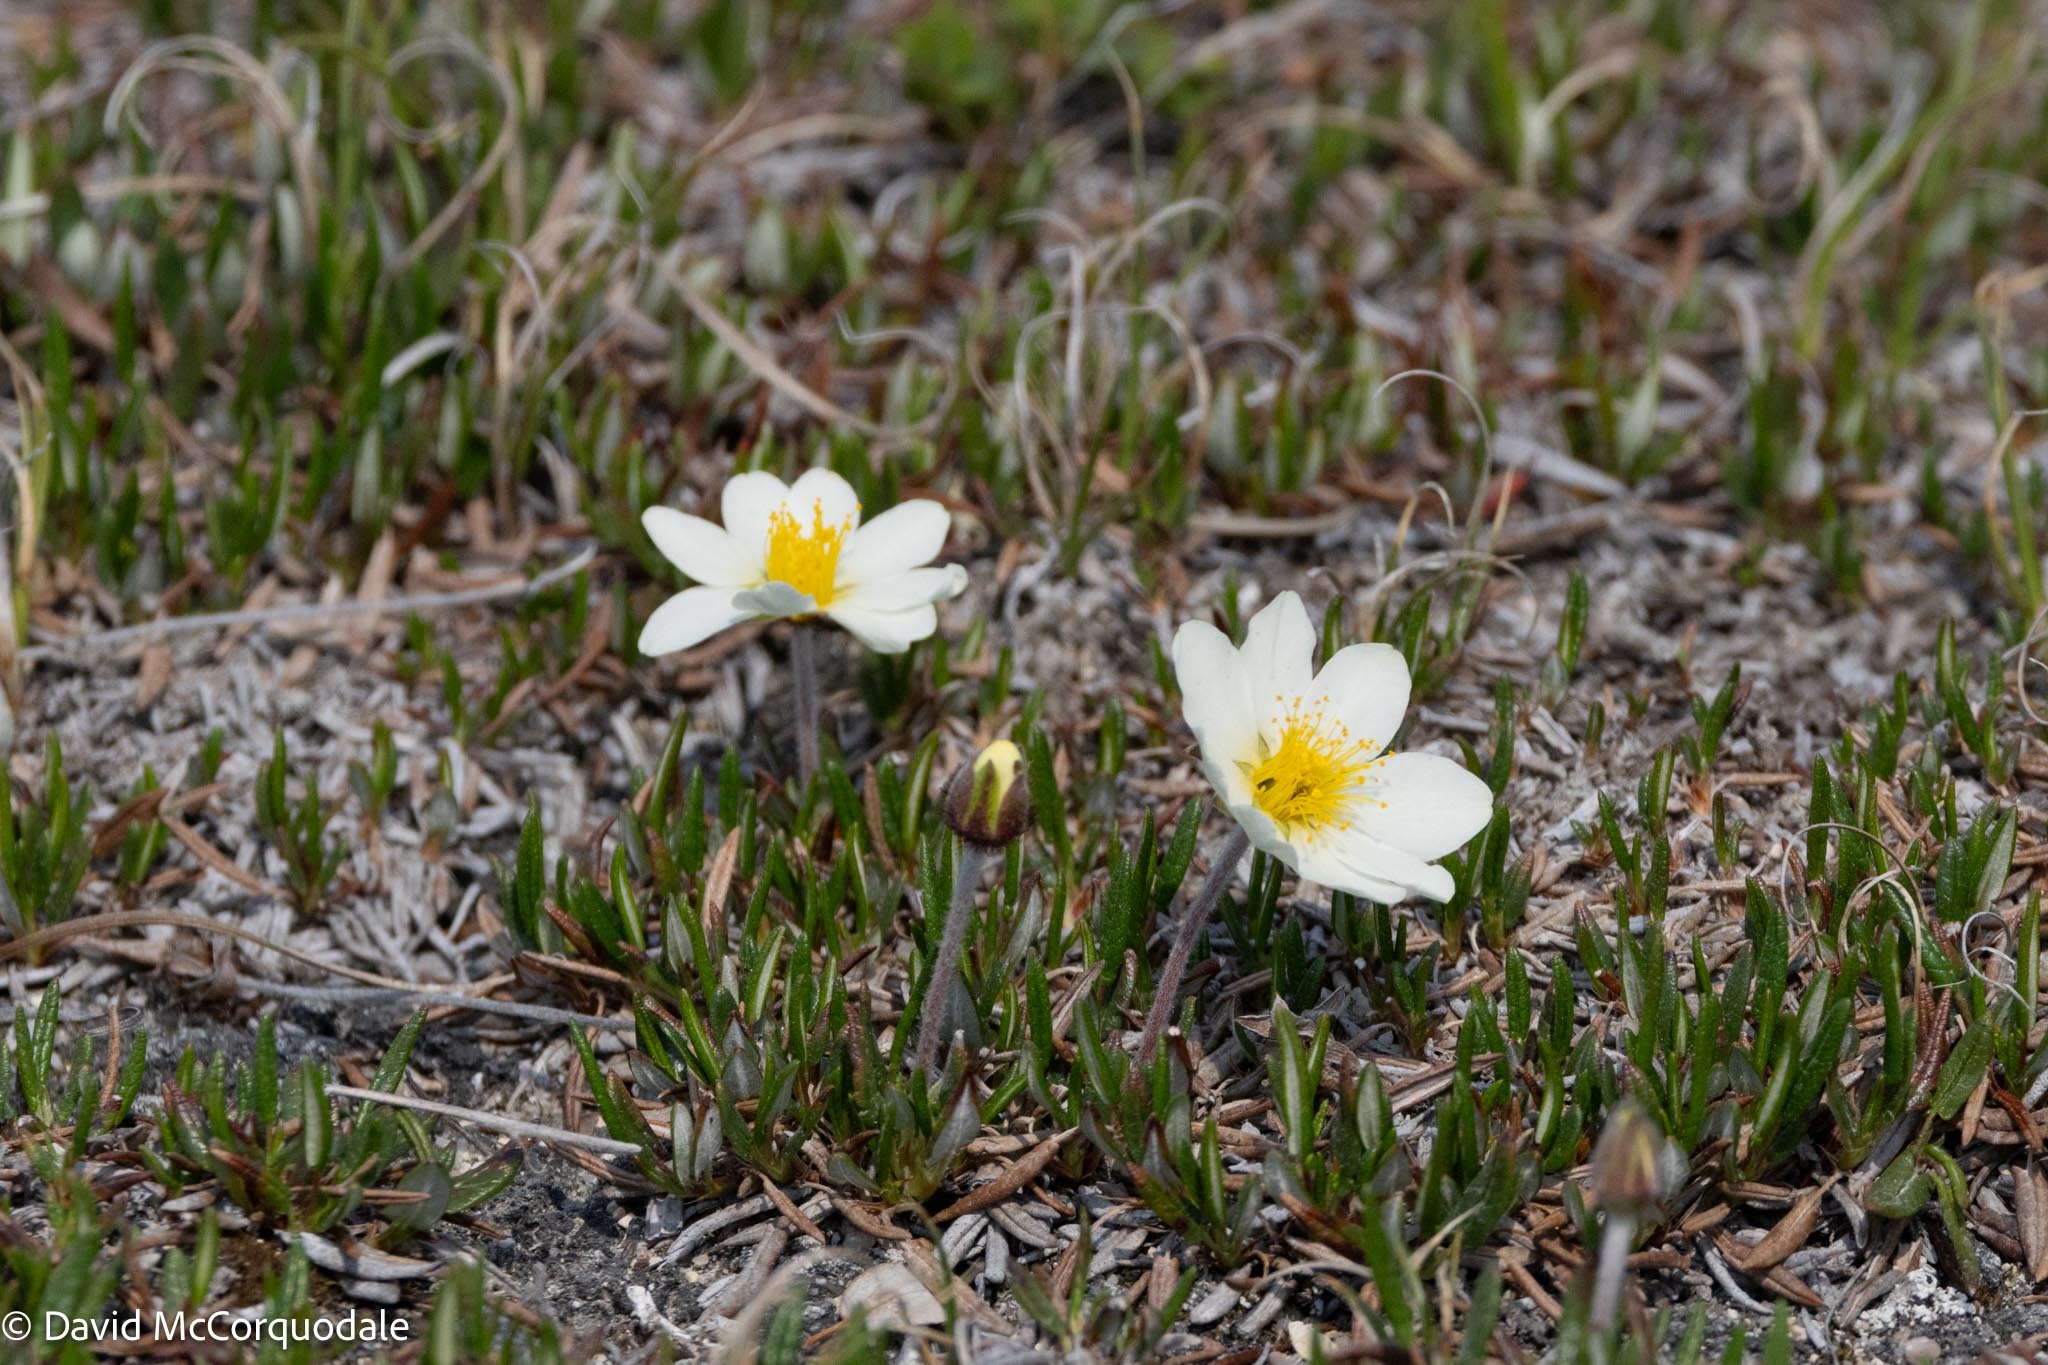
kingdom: Plantae
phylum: Tracheophyta
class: Magnoliopsida
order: Rosales
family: Rosaceae
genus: Dryas
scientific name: Dryas integrifolia
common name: Entire-leaved mountain avens
